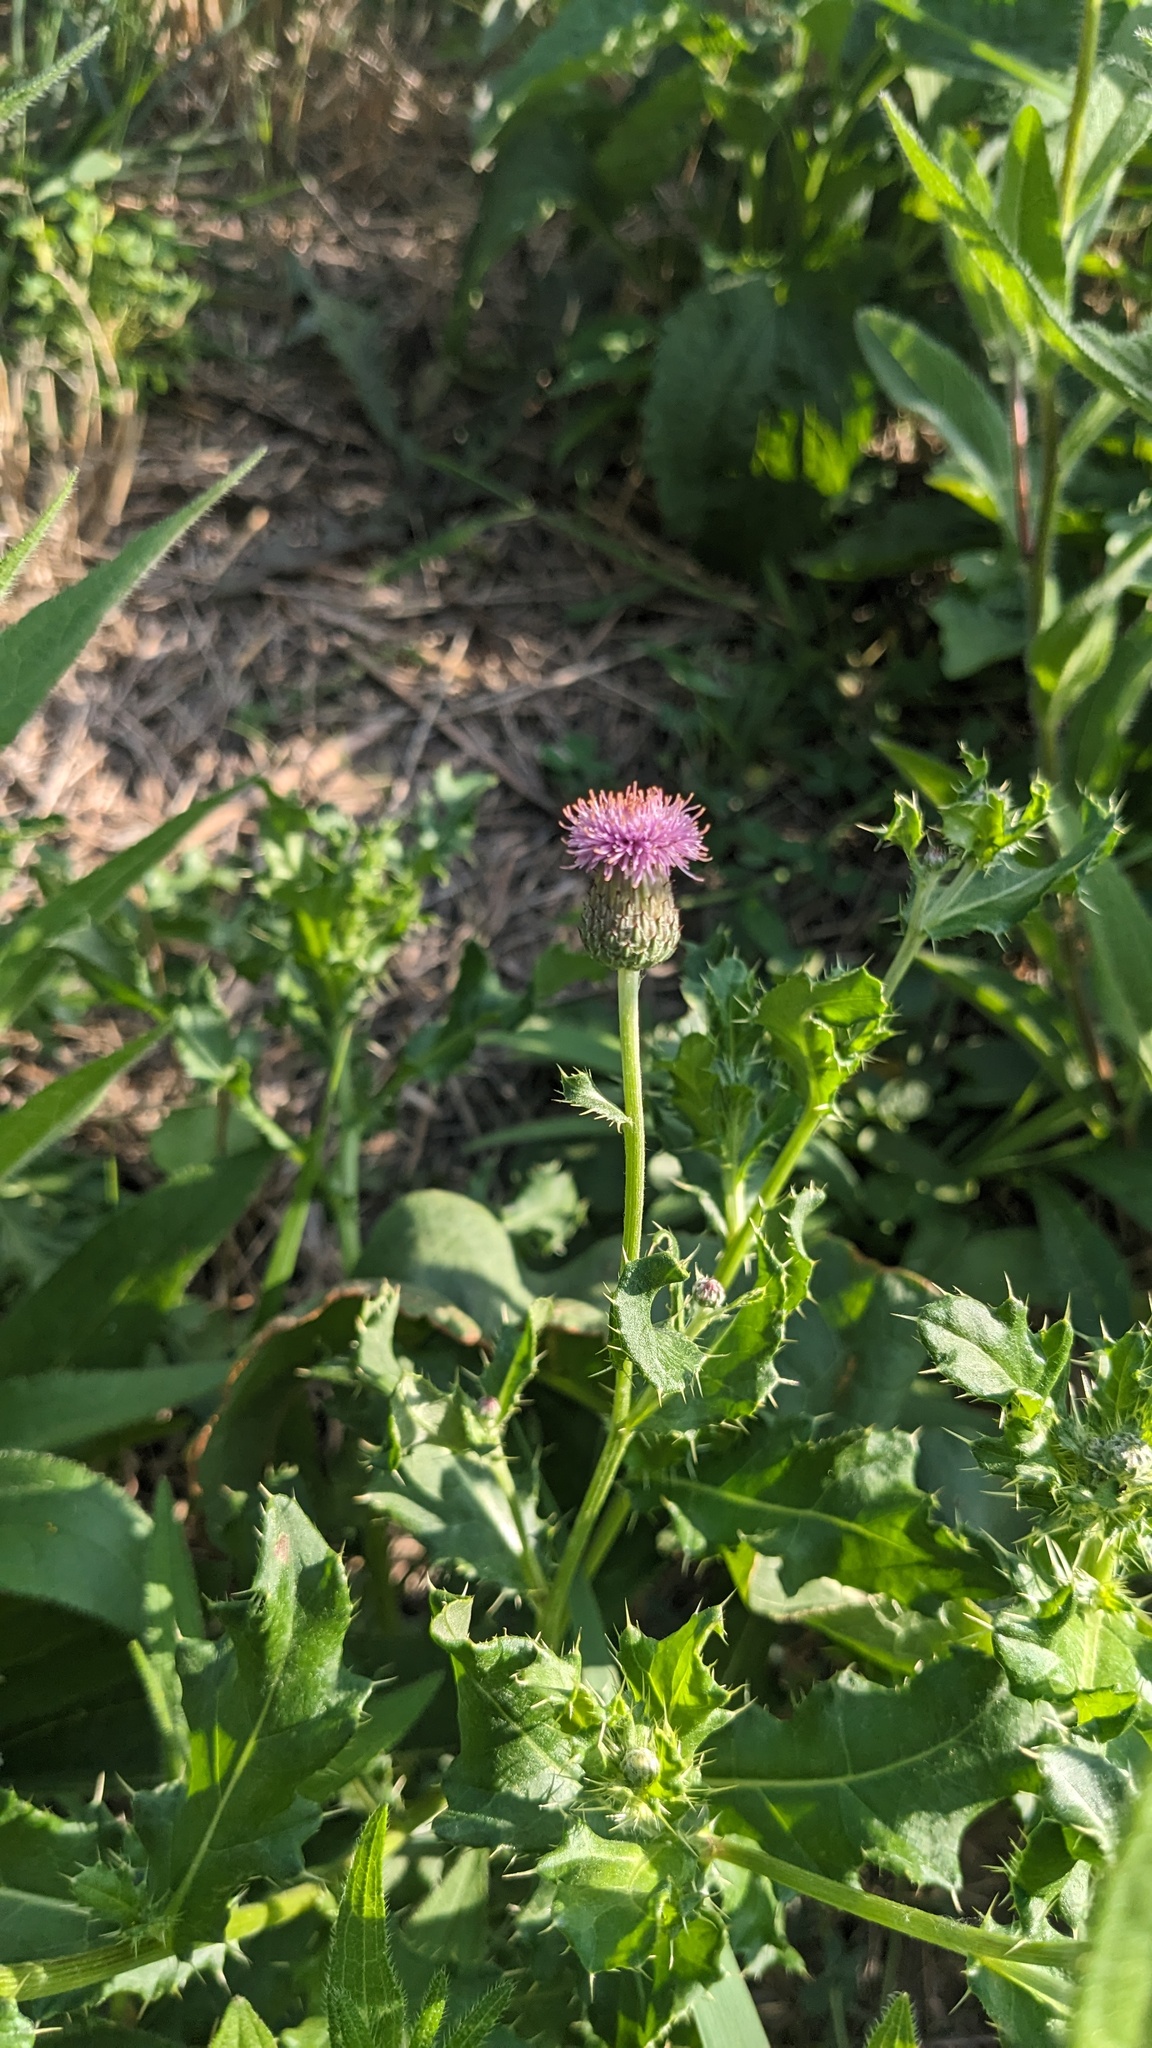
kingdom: Plantae
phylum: Tracheophyta
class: Magnoliopsida
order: Asterales
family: Asteraceae
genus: Cirsium
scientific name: Cirsium arvense
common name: Creeping thistle
